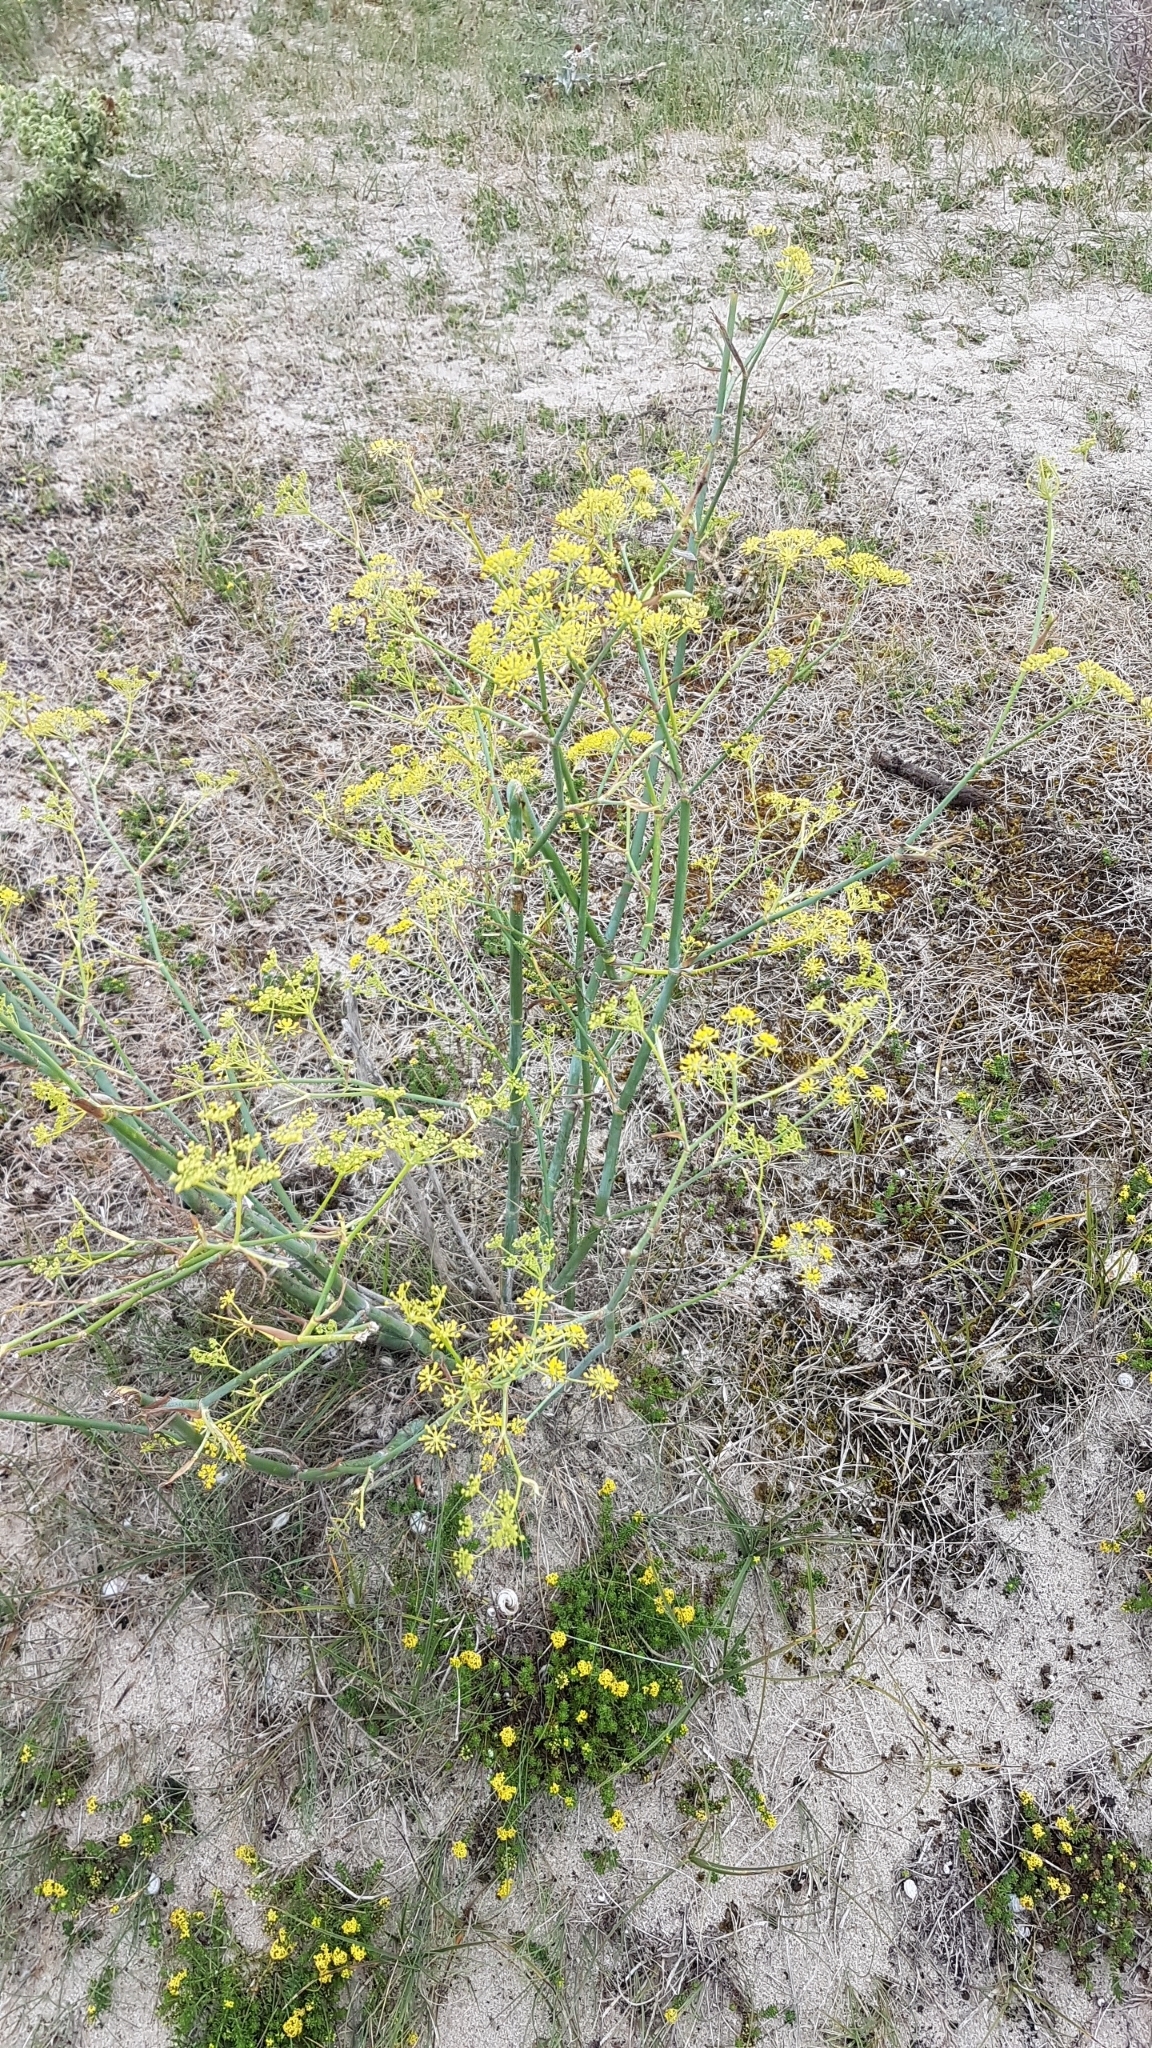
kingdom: Plantae
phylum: Tracheophyta
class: Magnoliopsida
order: Apiales
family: Apiaceae
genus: Foeniculum
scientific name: Foeniculum vulgare
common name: Fennel
